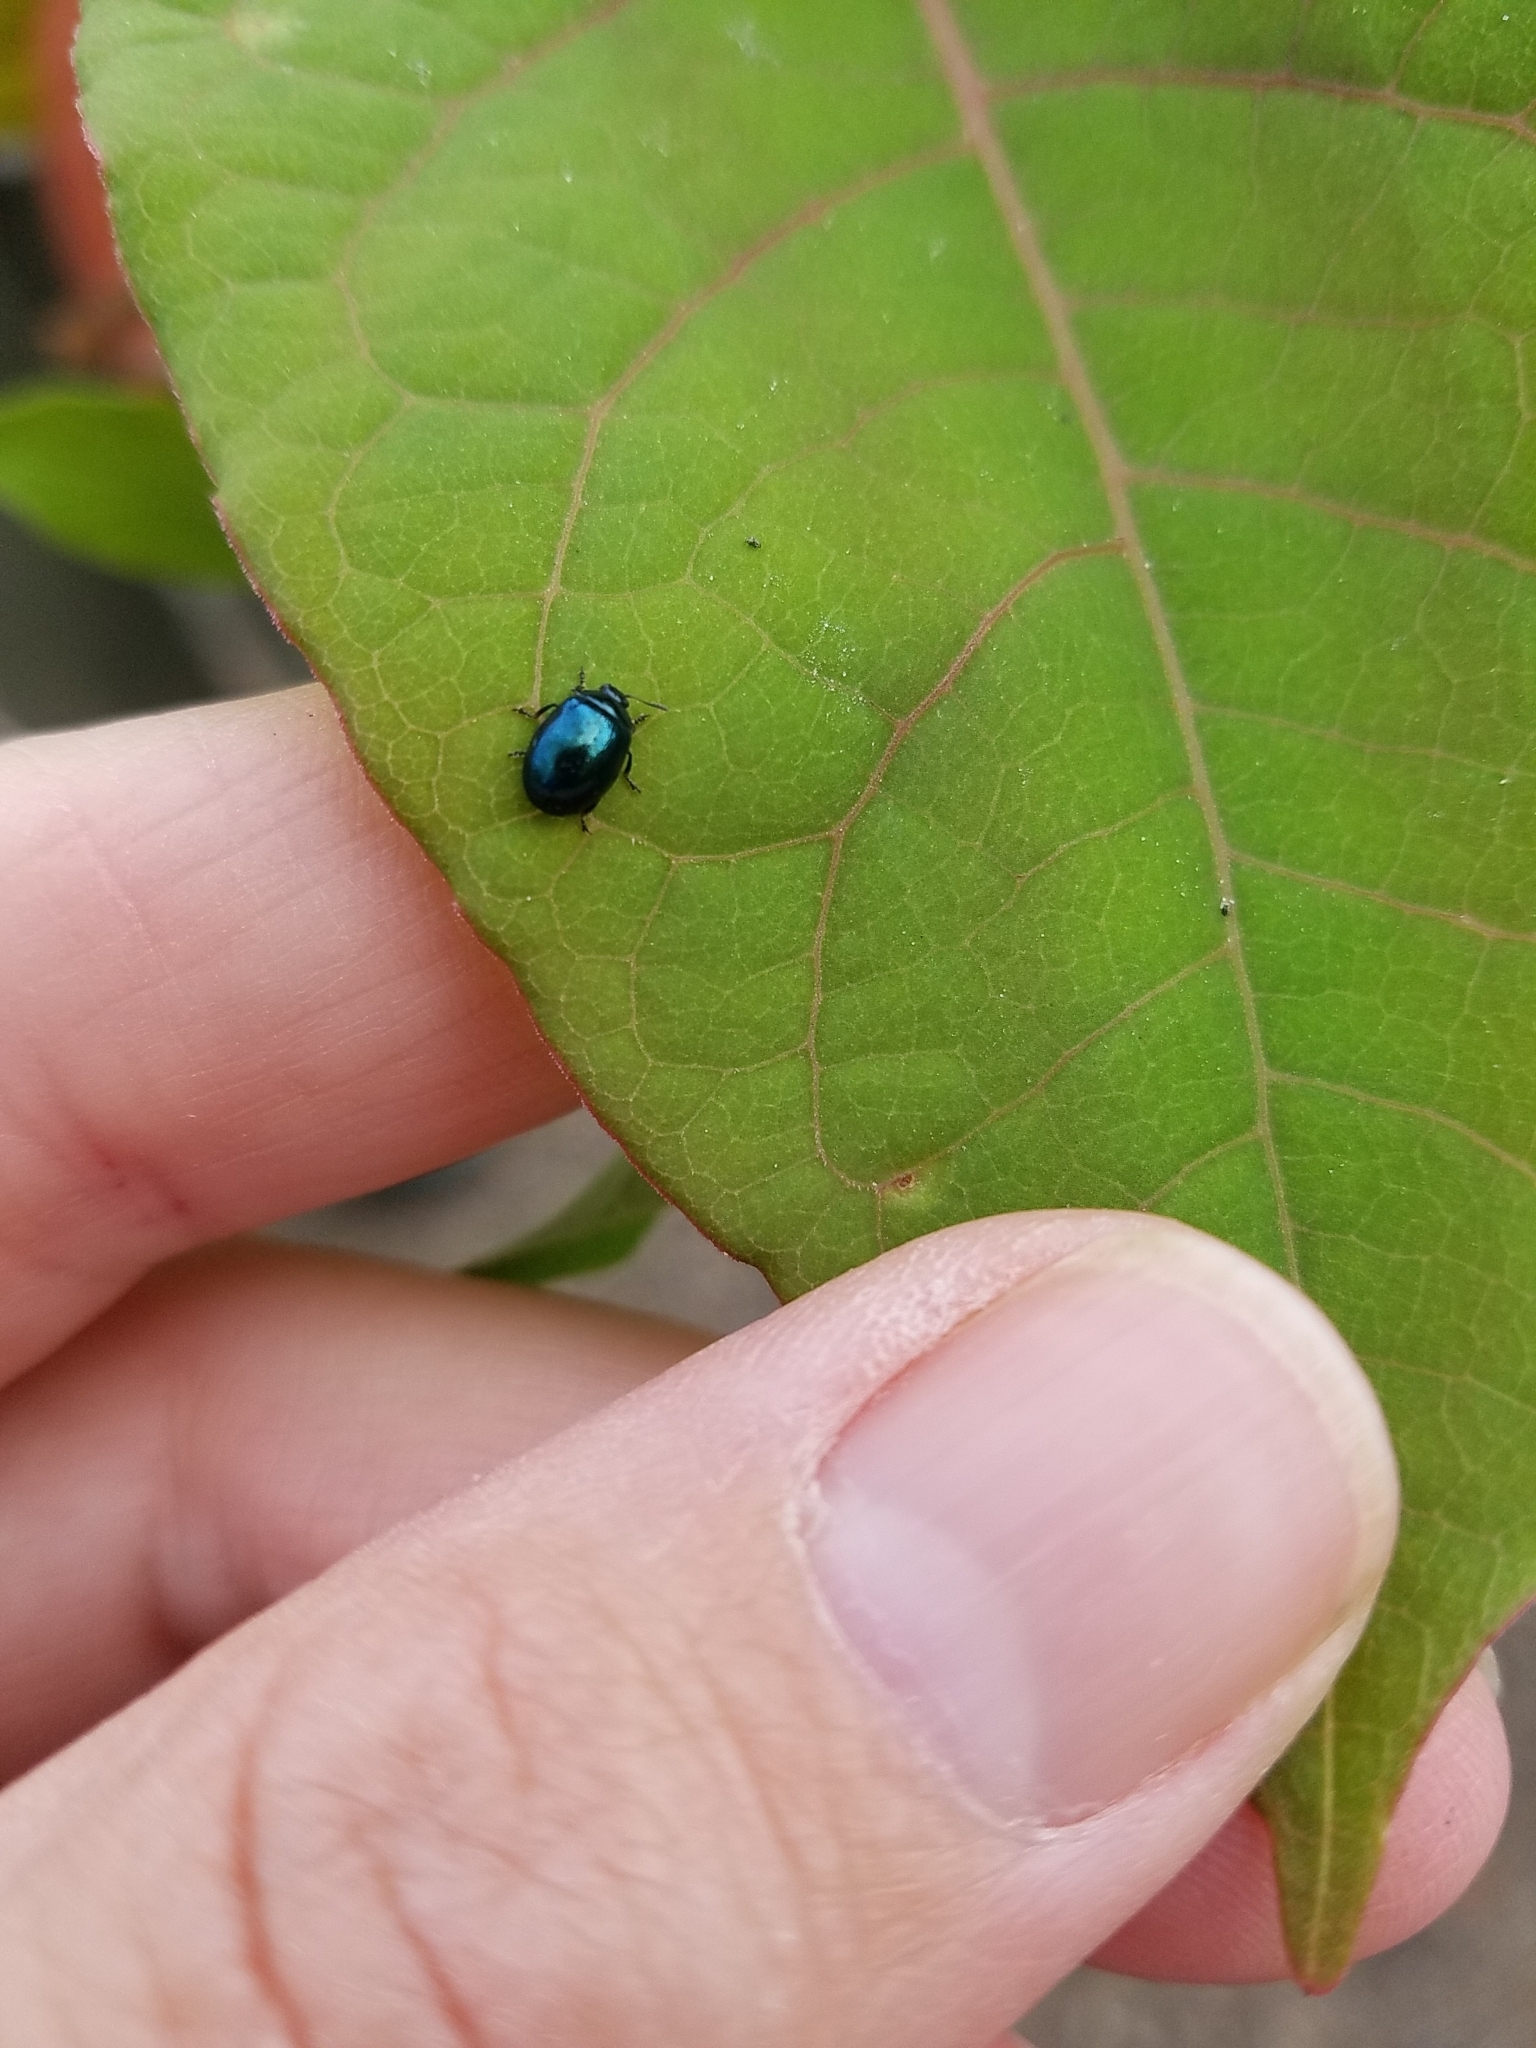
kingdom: Animalia
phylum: Arthropoda
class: Insecta
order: Coleoptera
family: Chrysomelidae
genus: Plagiodera
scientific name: Plagiodera versicolora
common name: Imported willow leaf beetle
